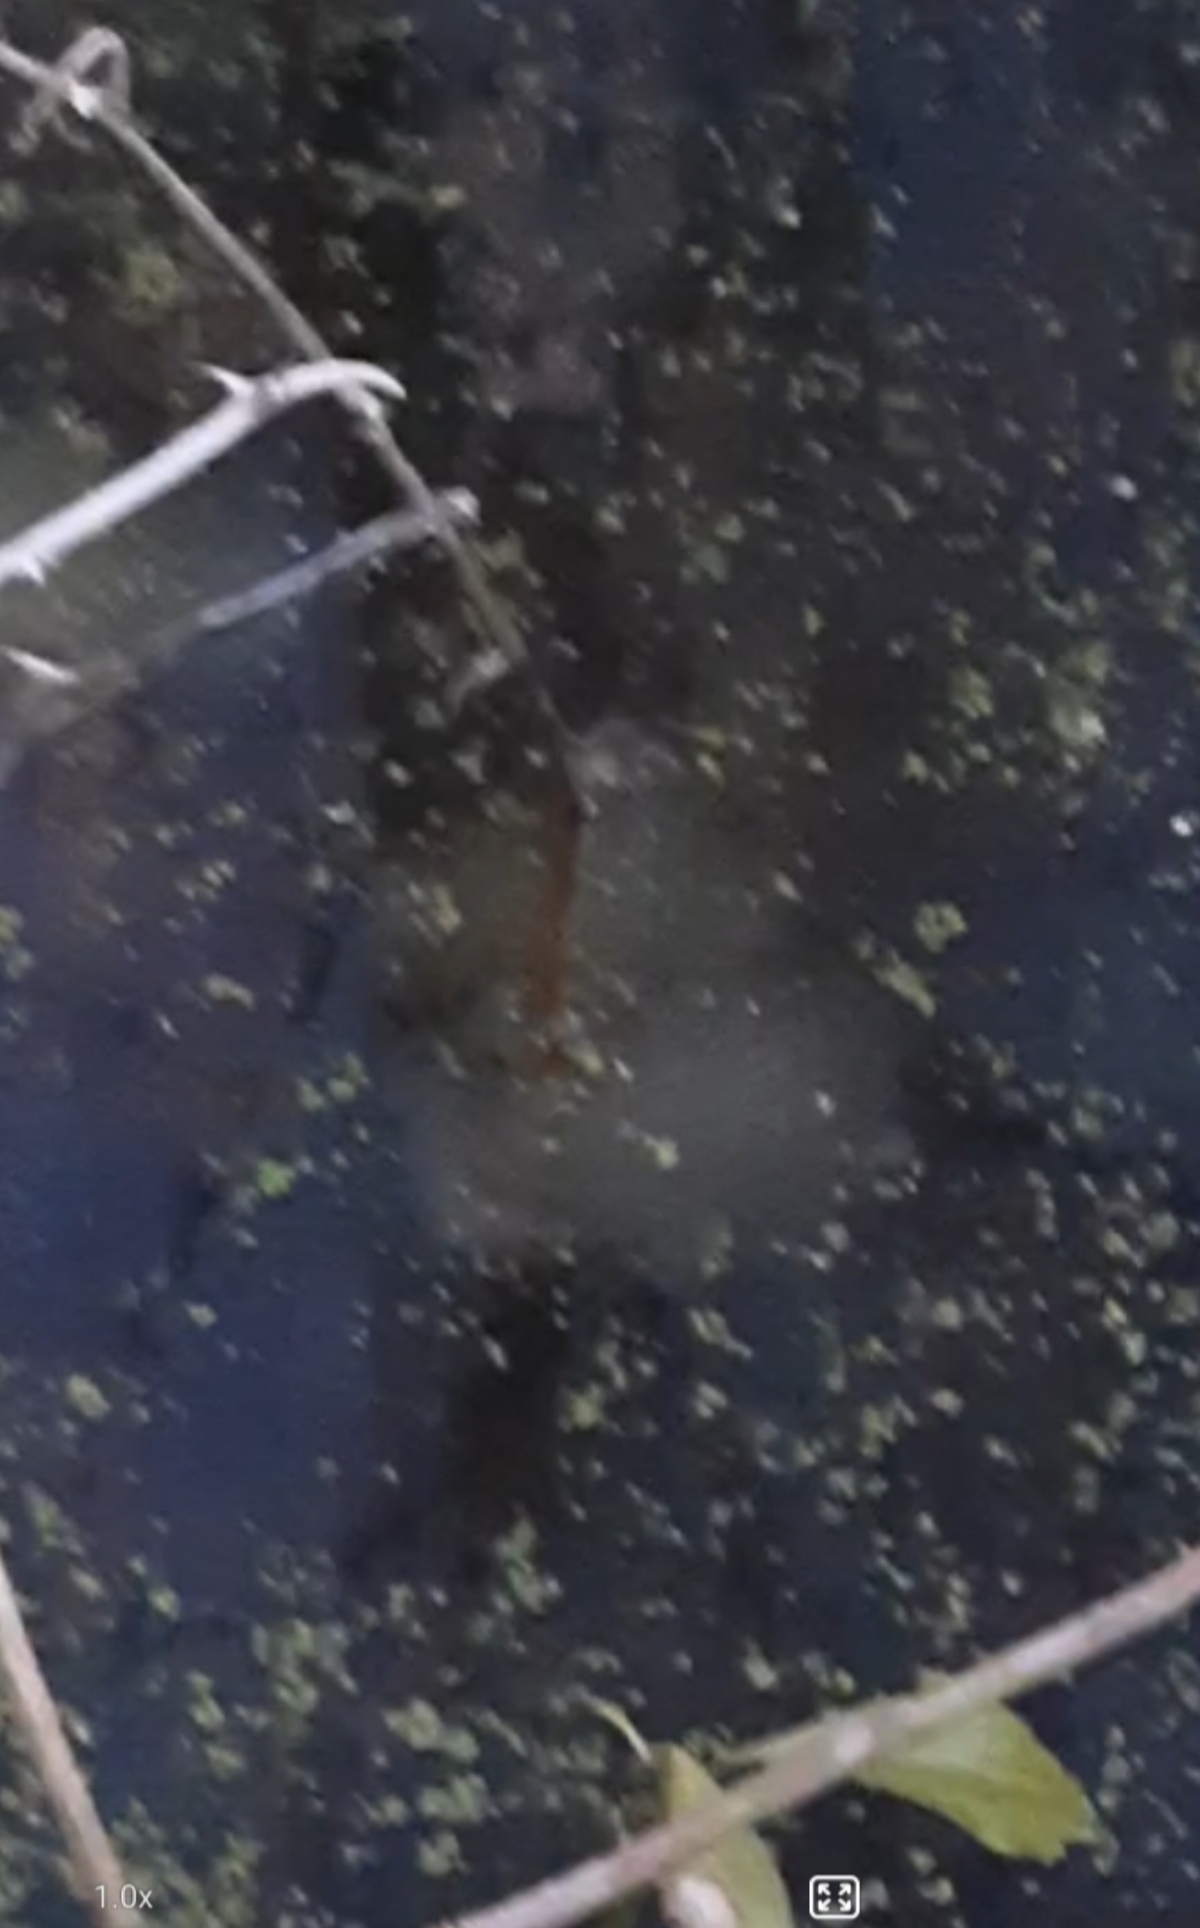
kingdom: Animalia
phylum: Chordata
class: Amphibia
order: Caudata
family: Ambystomatidae
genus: Ambystoma
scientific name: Ambystoma maculatum
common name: Spotted salamander
